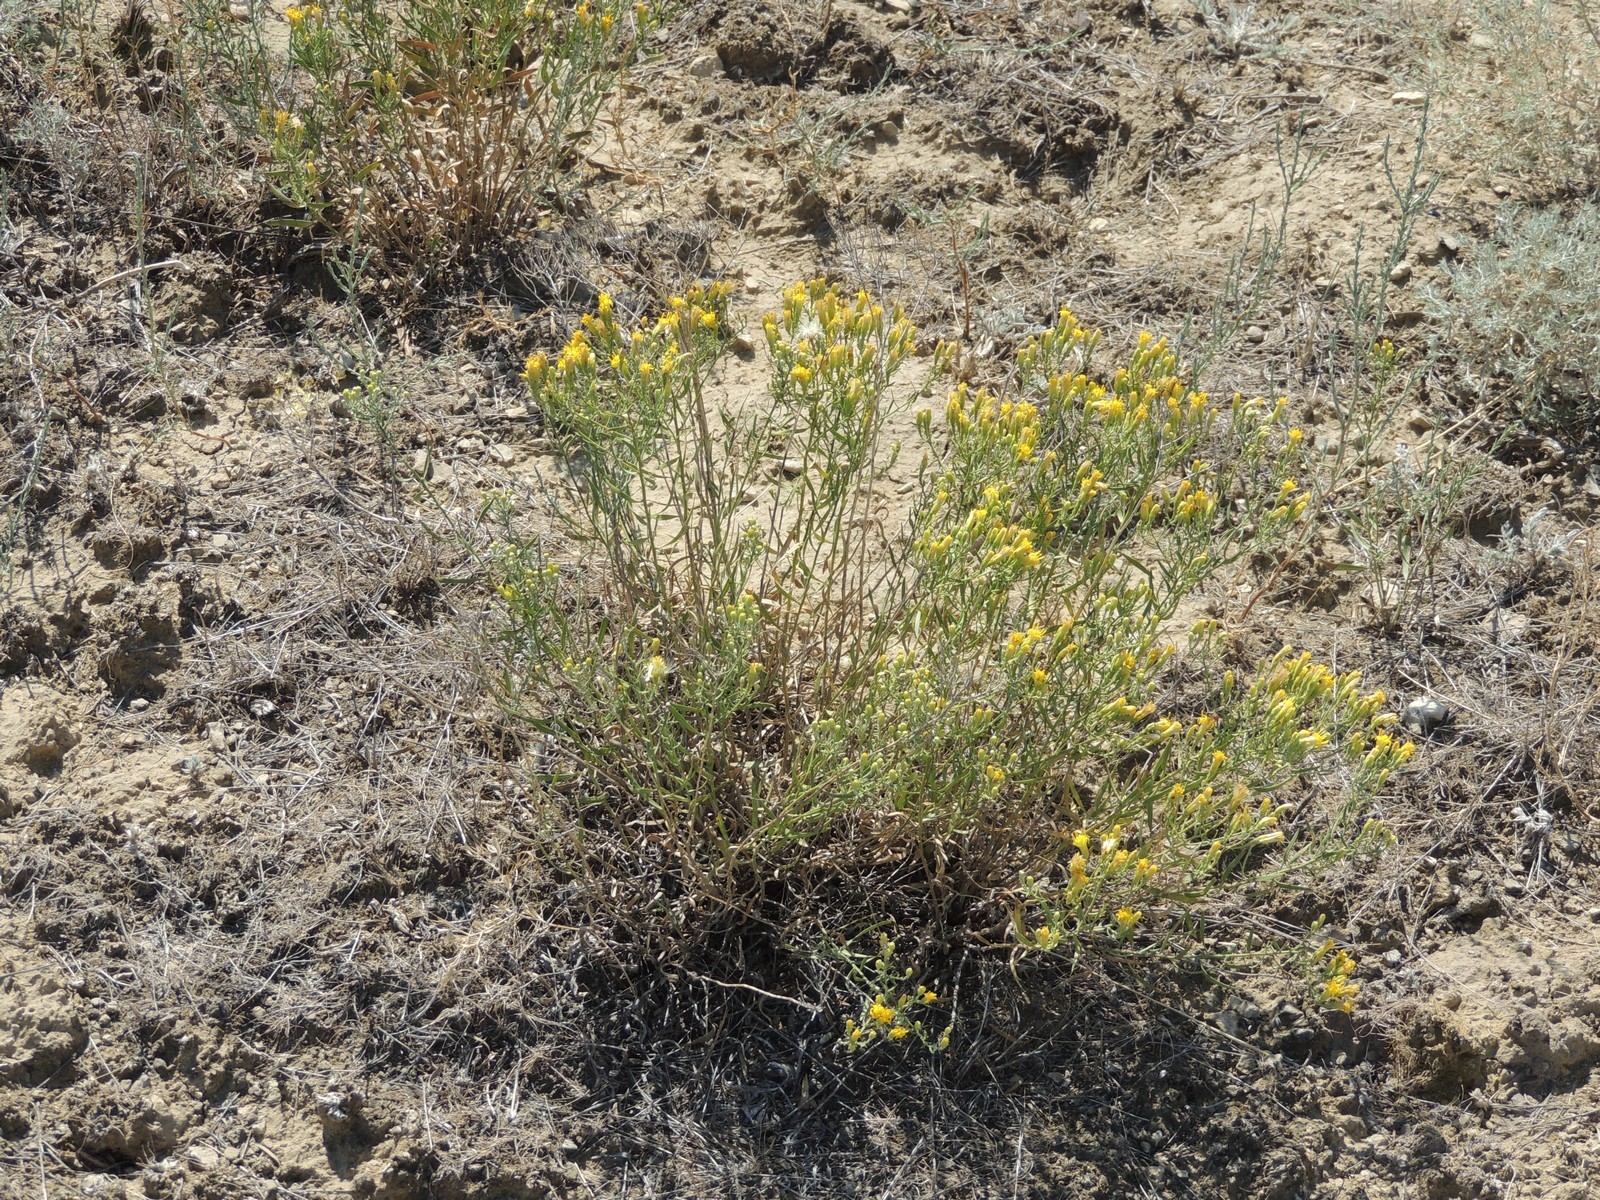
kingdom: Plantae
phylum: Tracheophyta
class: Magnoliopsida
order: Asterales
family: Asteraceae
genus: Galatella
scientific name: Galatella sedifolia
